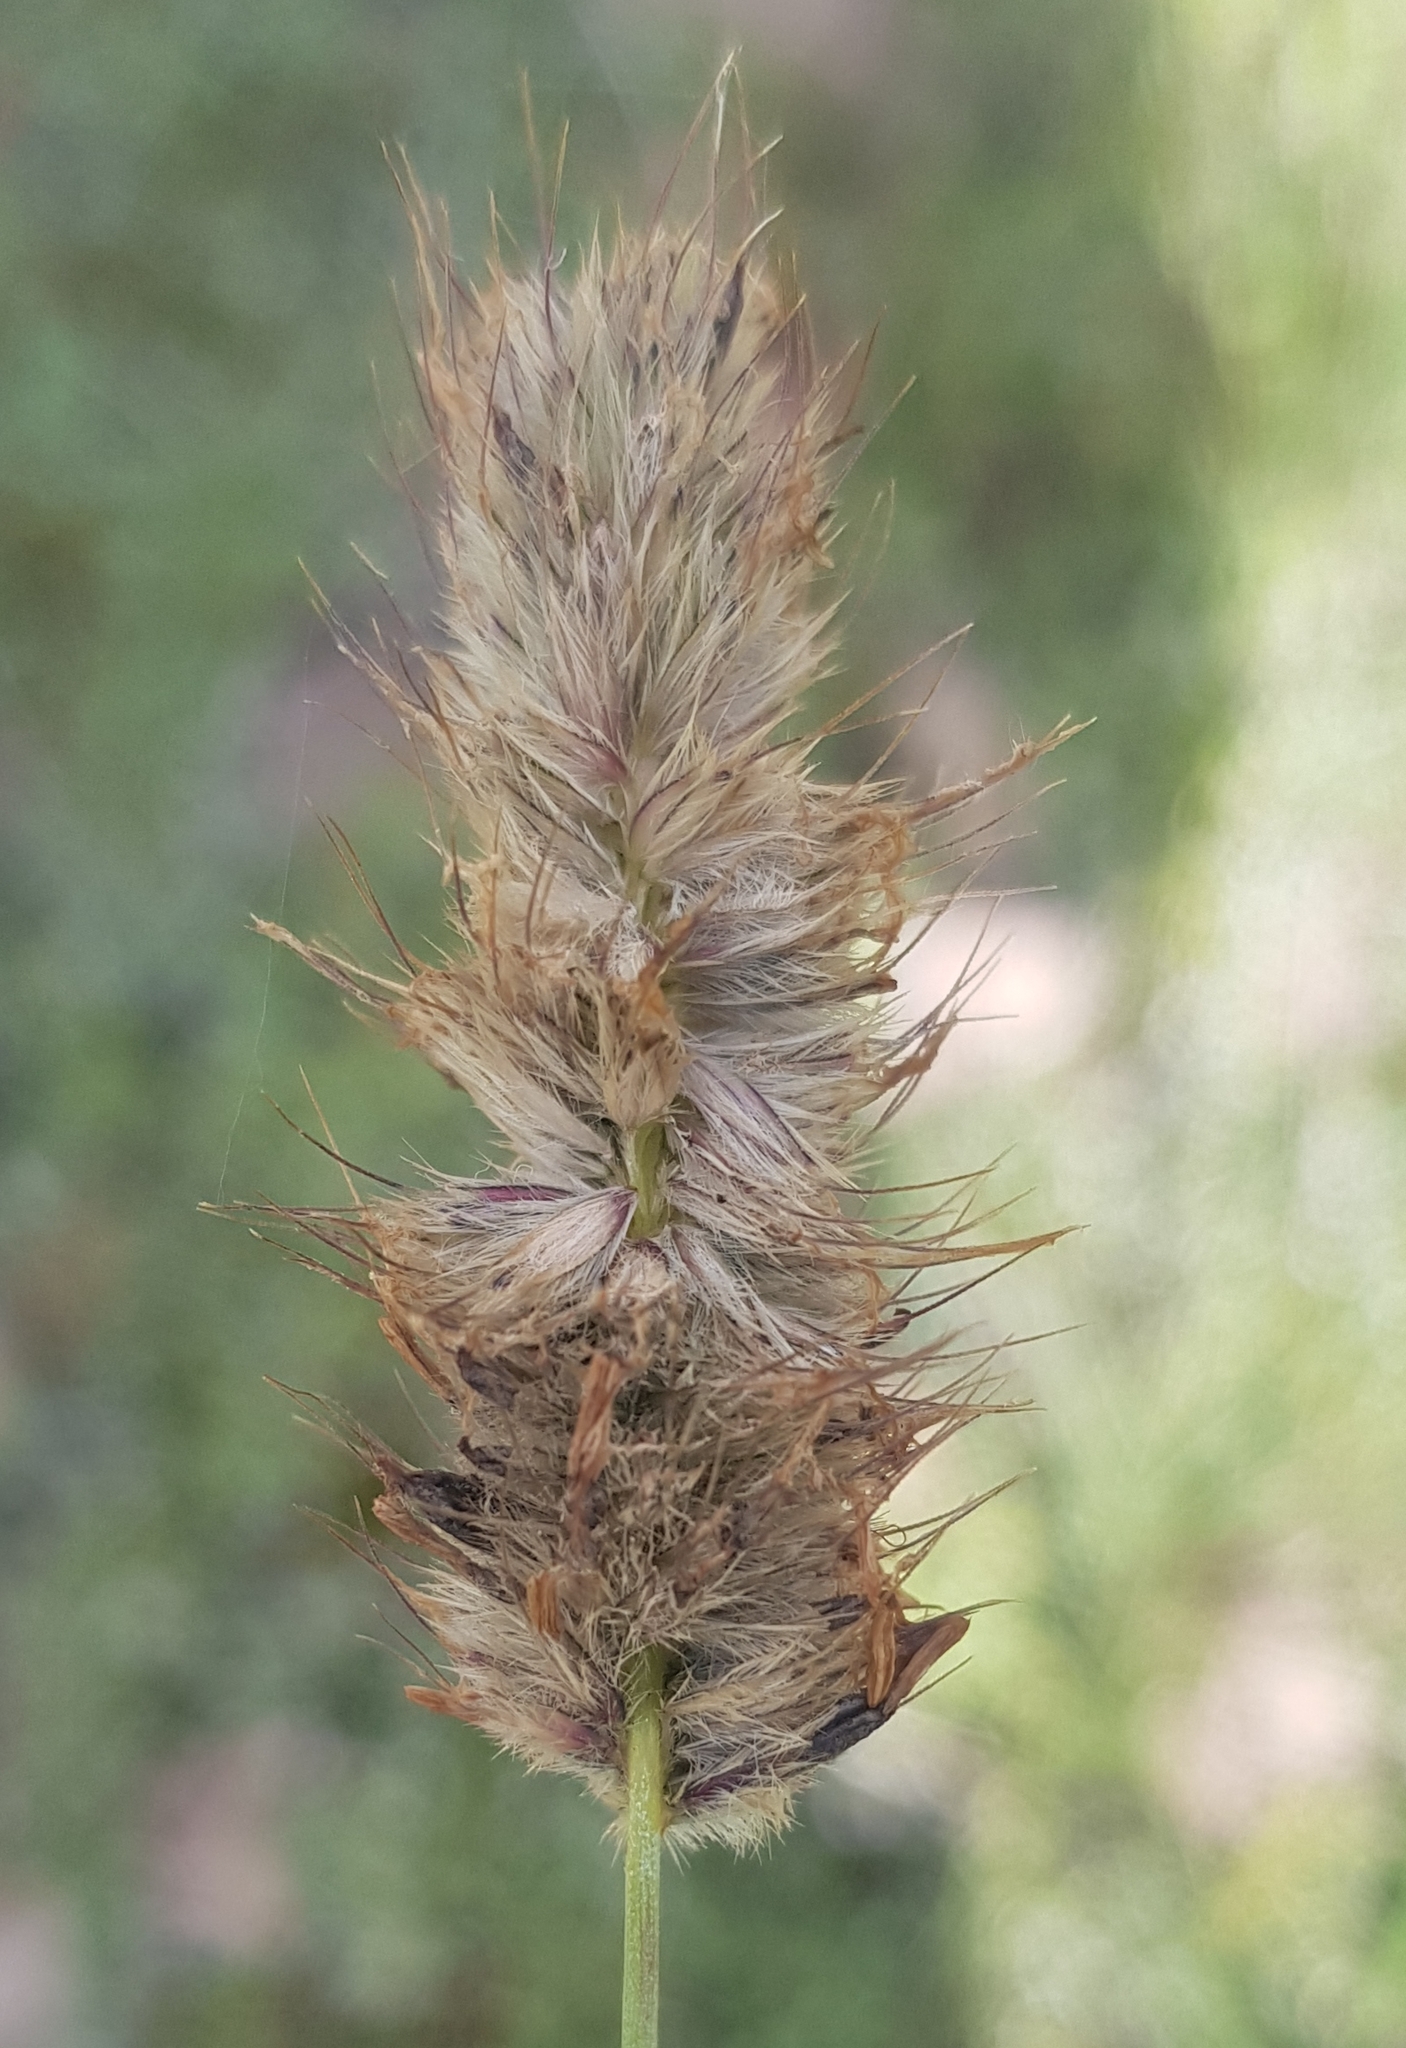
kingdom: Plantae
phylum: Tracheophyta
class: Liliopsida
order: Poales
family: Poaceae
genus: Alopecurus
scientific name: Alopecurus turczaninovii
